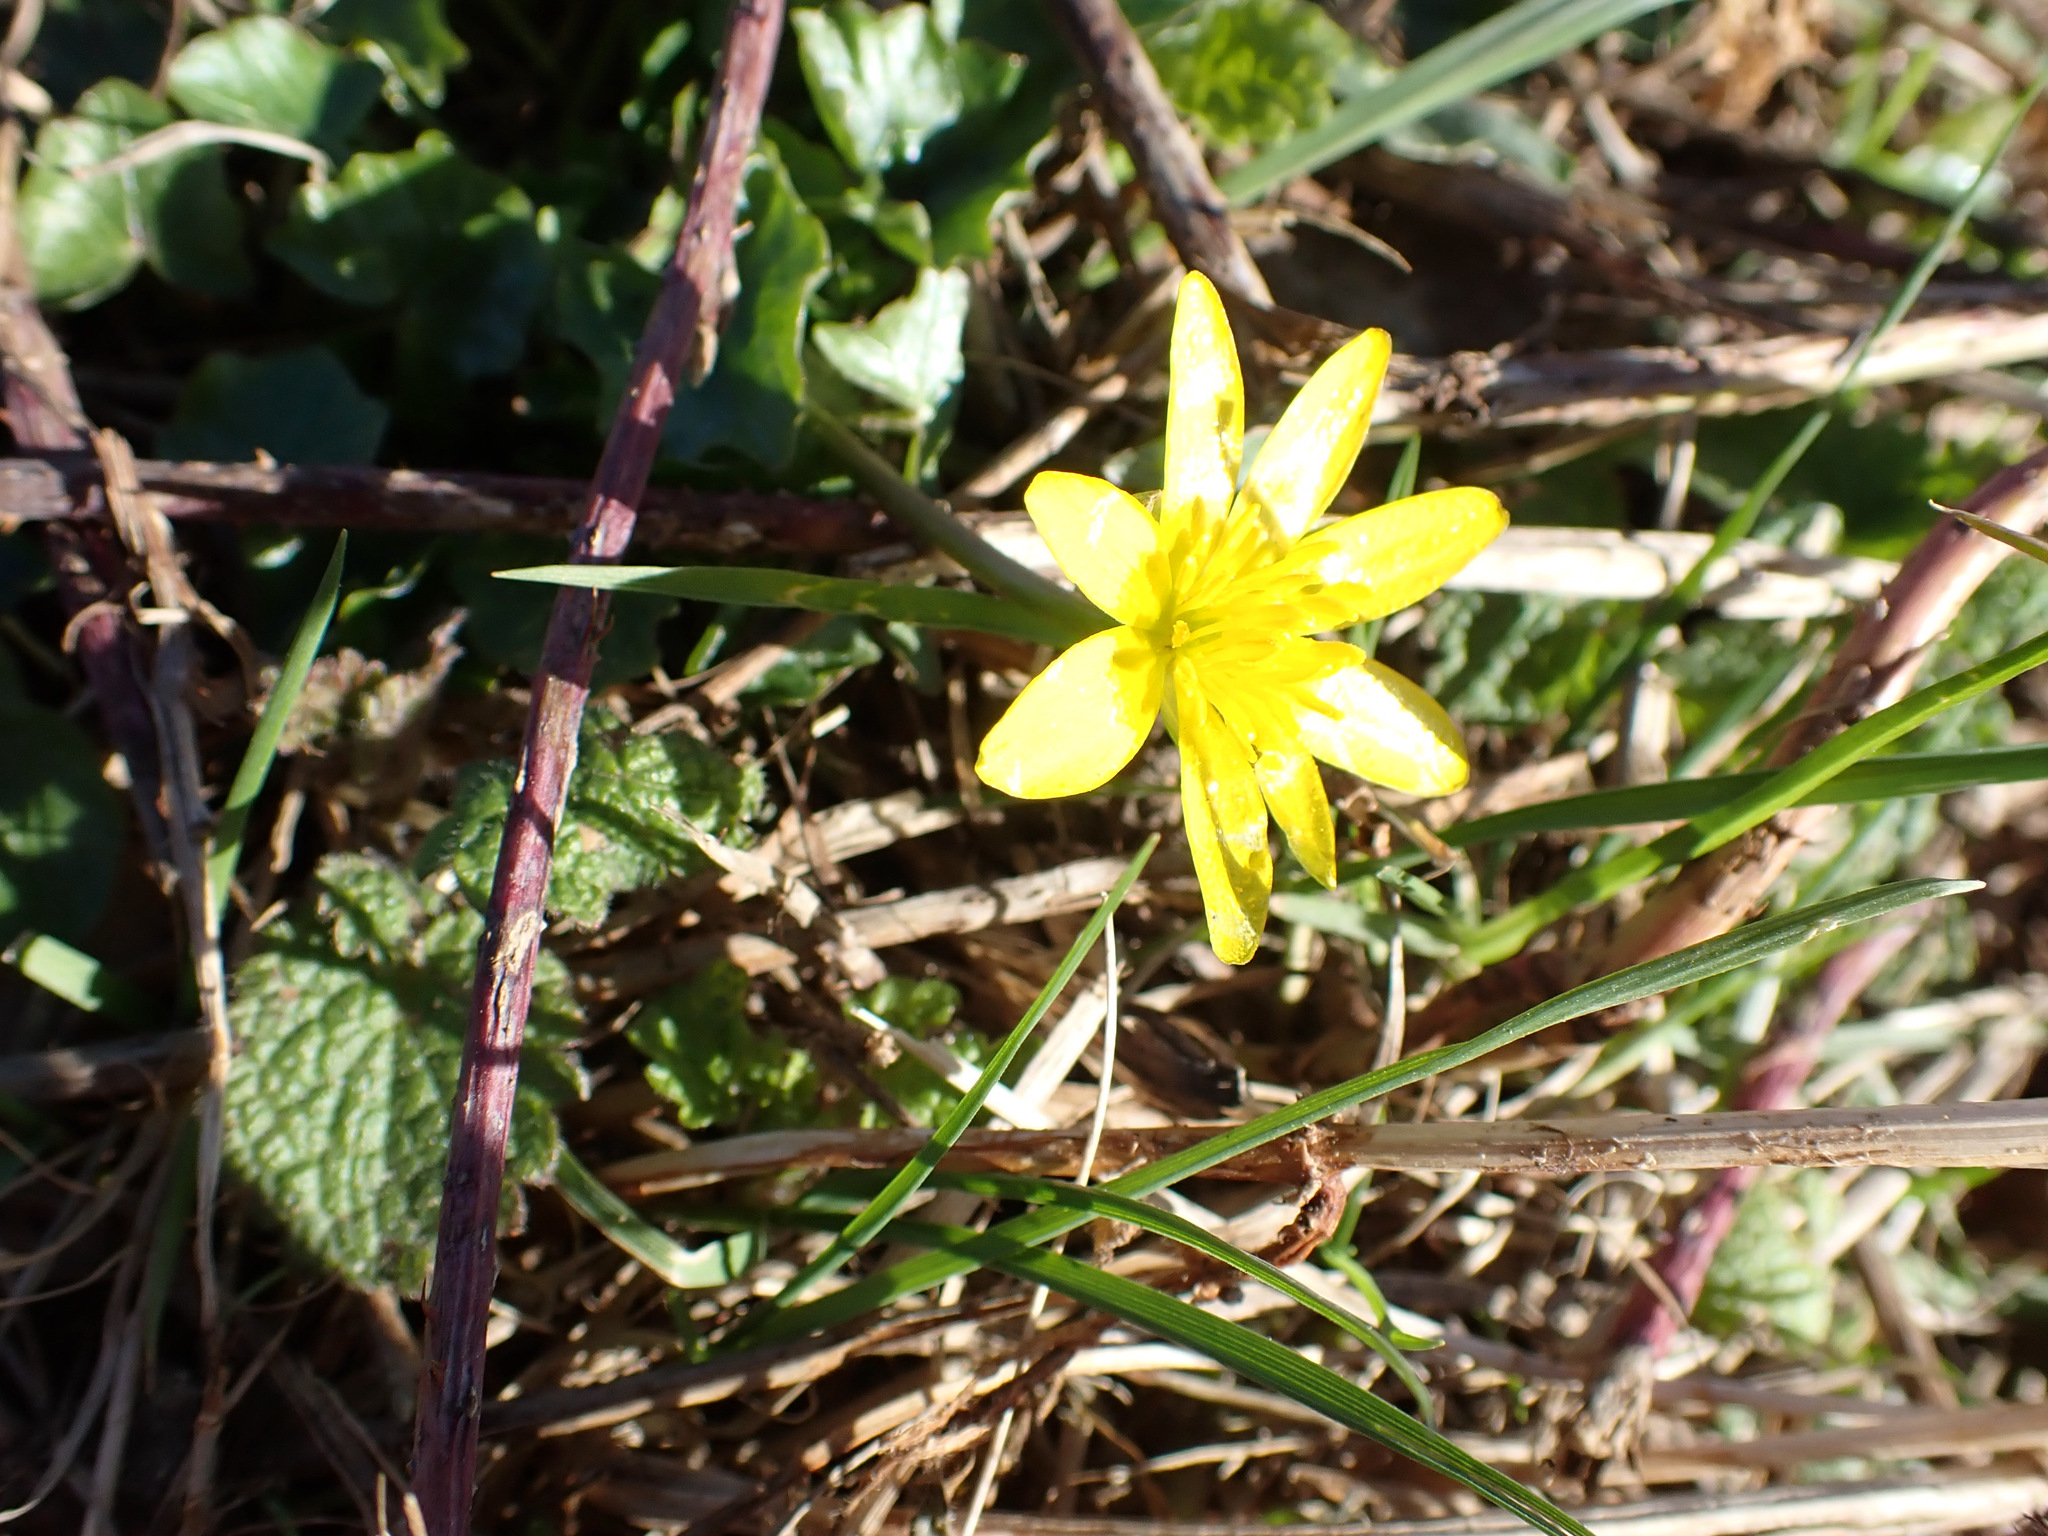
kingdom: Plantae
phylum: Tracheophyta
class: Magnoliopsida
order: Ranunculales
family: Ranunculaceae
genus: Ficaria
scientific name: Ficaria verna
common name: Lesser celandine
